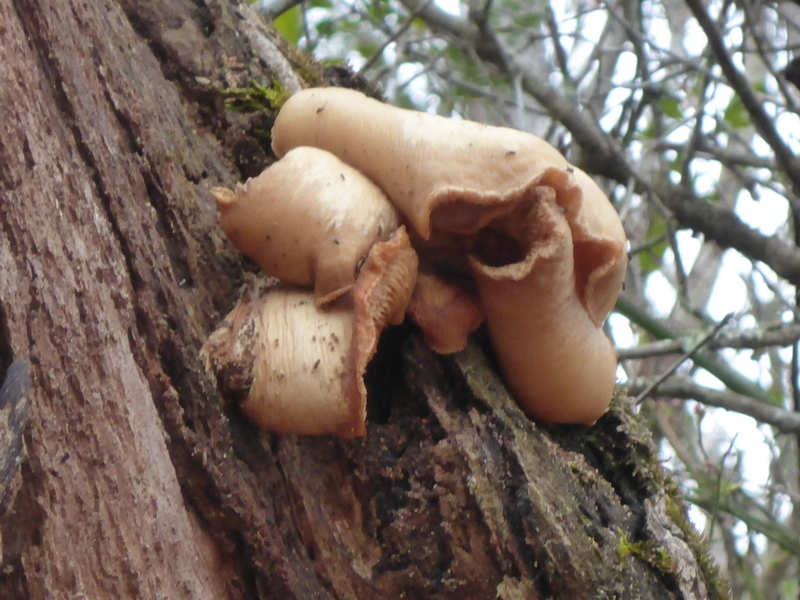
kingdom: Fungi
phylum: Basidiomycota
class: Agaricomycetes
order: Agaricales
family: Pleurotaceae
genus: Pleurotus
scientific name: Pleurotus ostreatus
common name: Oyster mushroom
